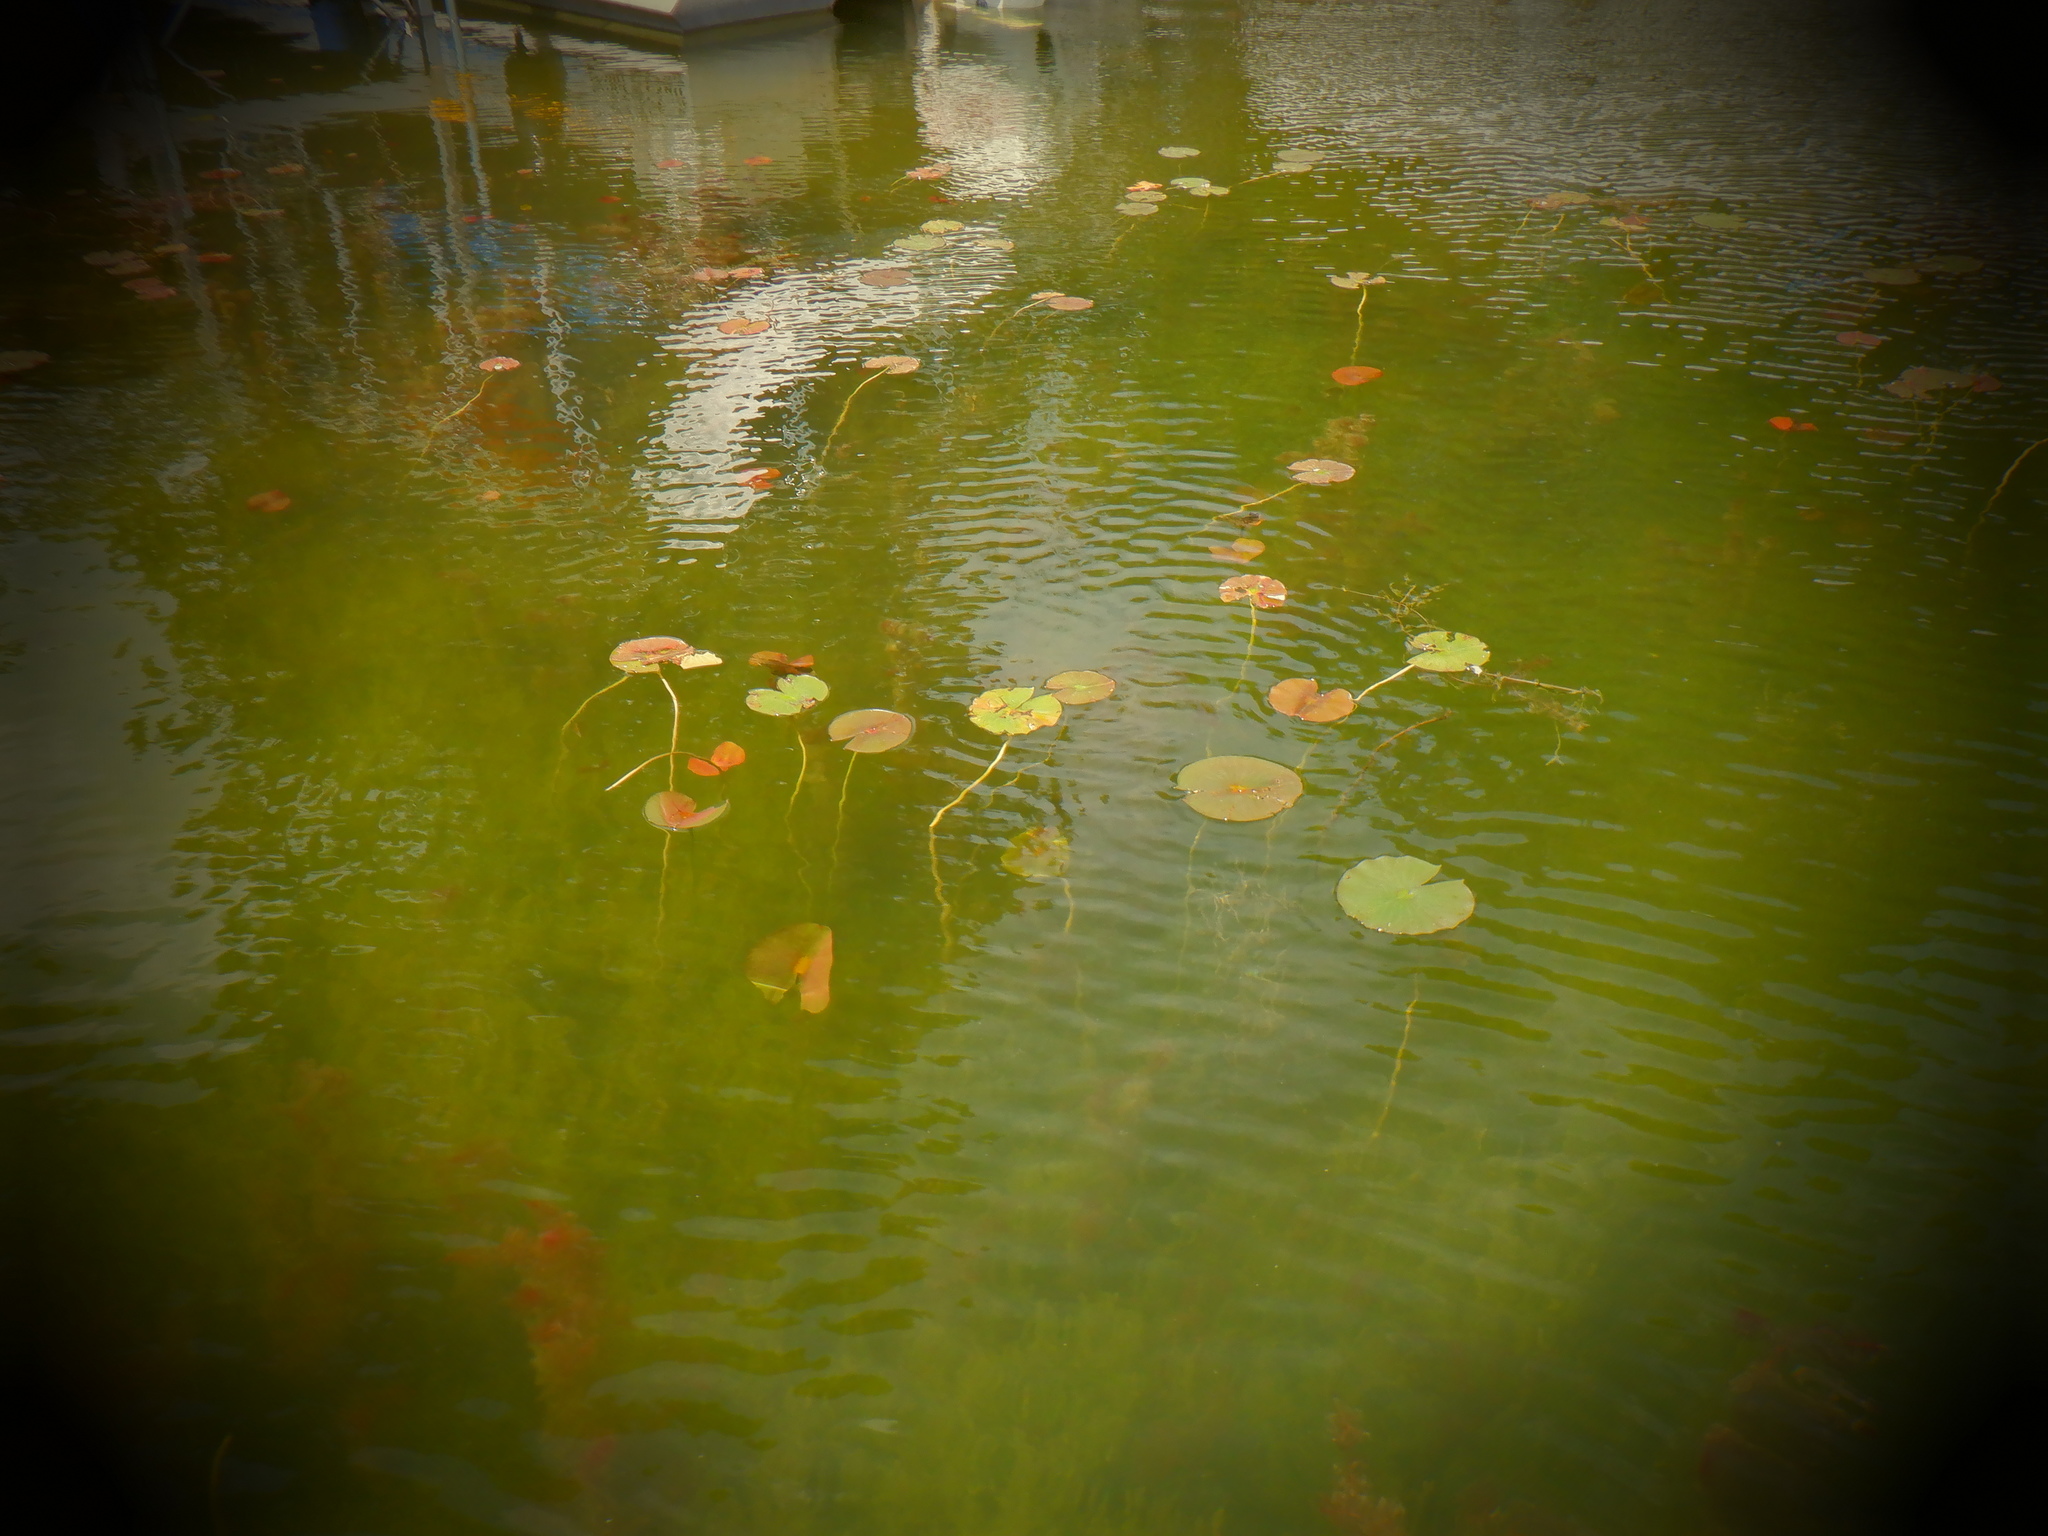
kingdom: Plantae
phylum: Tracheophyta
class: Magnoliopsida
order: Nymphaeales
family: Nymphaeaceae
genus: Nymphaea
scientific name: Nymphaea odorata
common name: Fragrant water-lily
